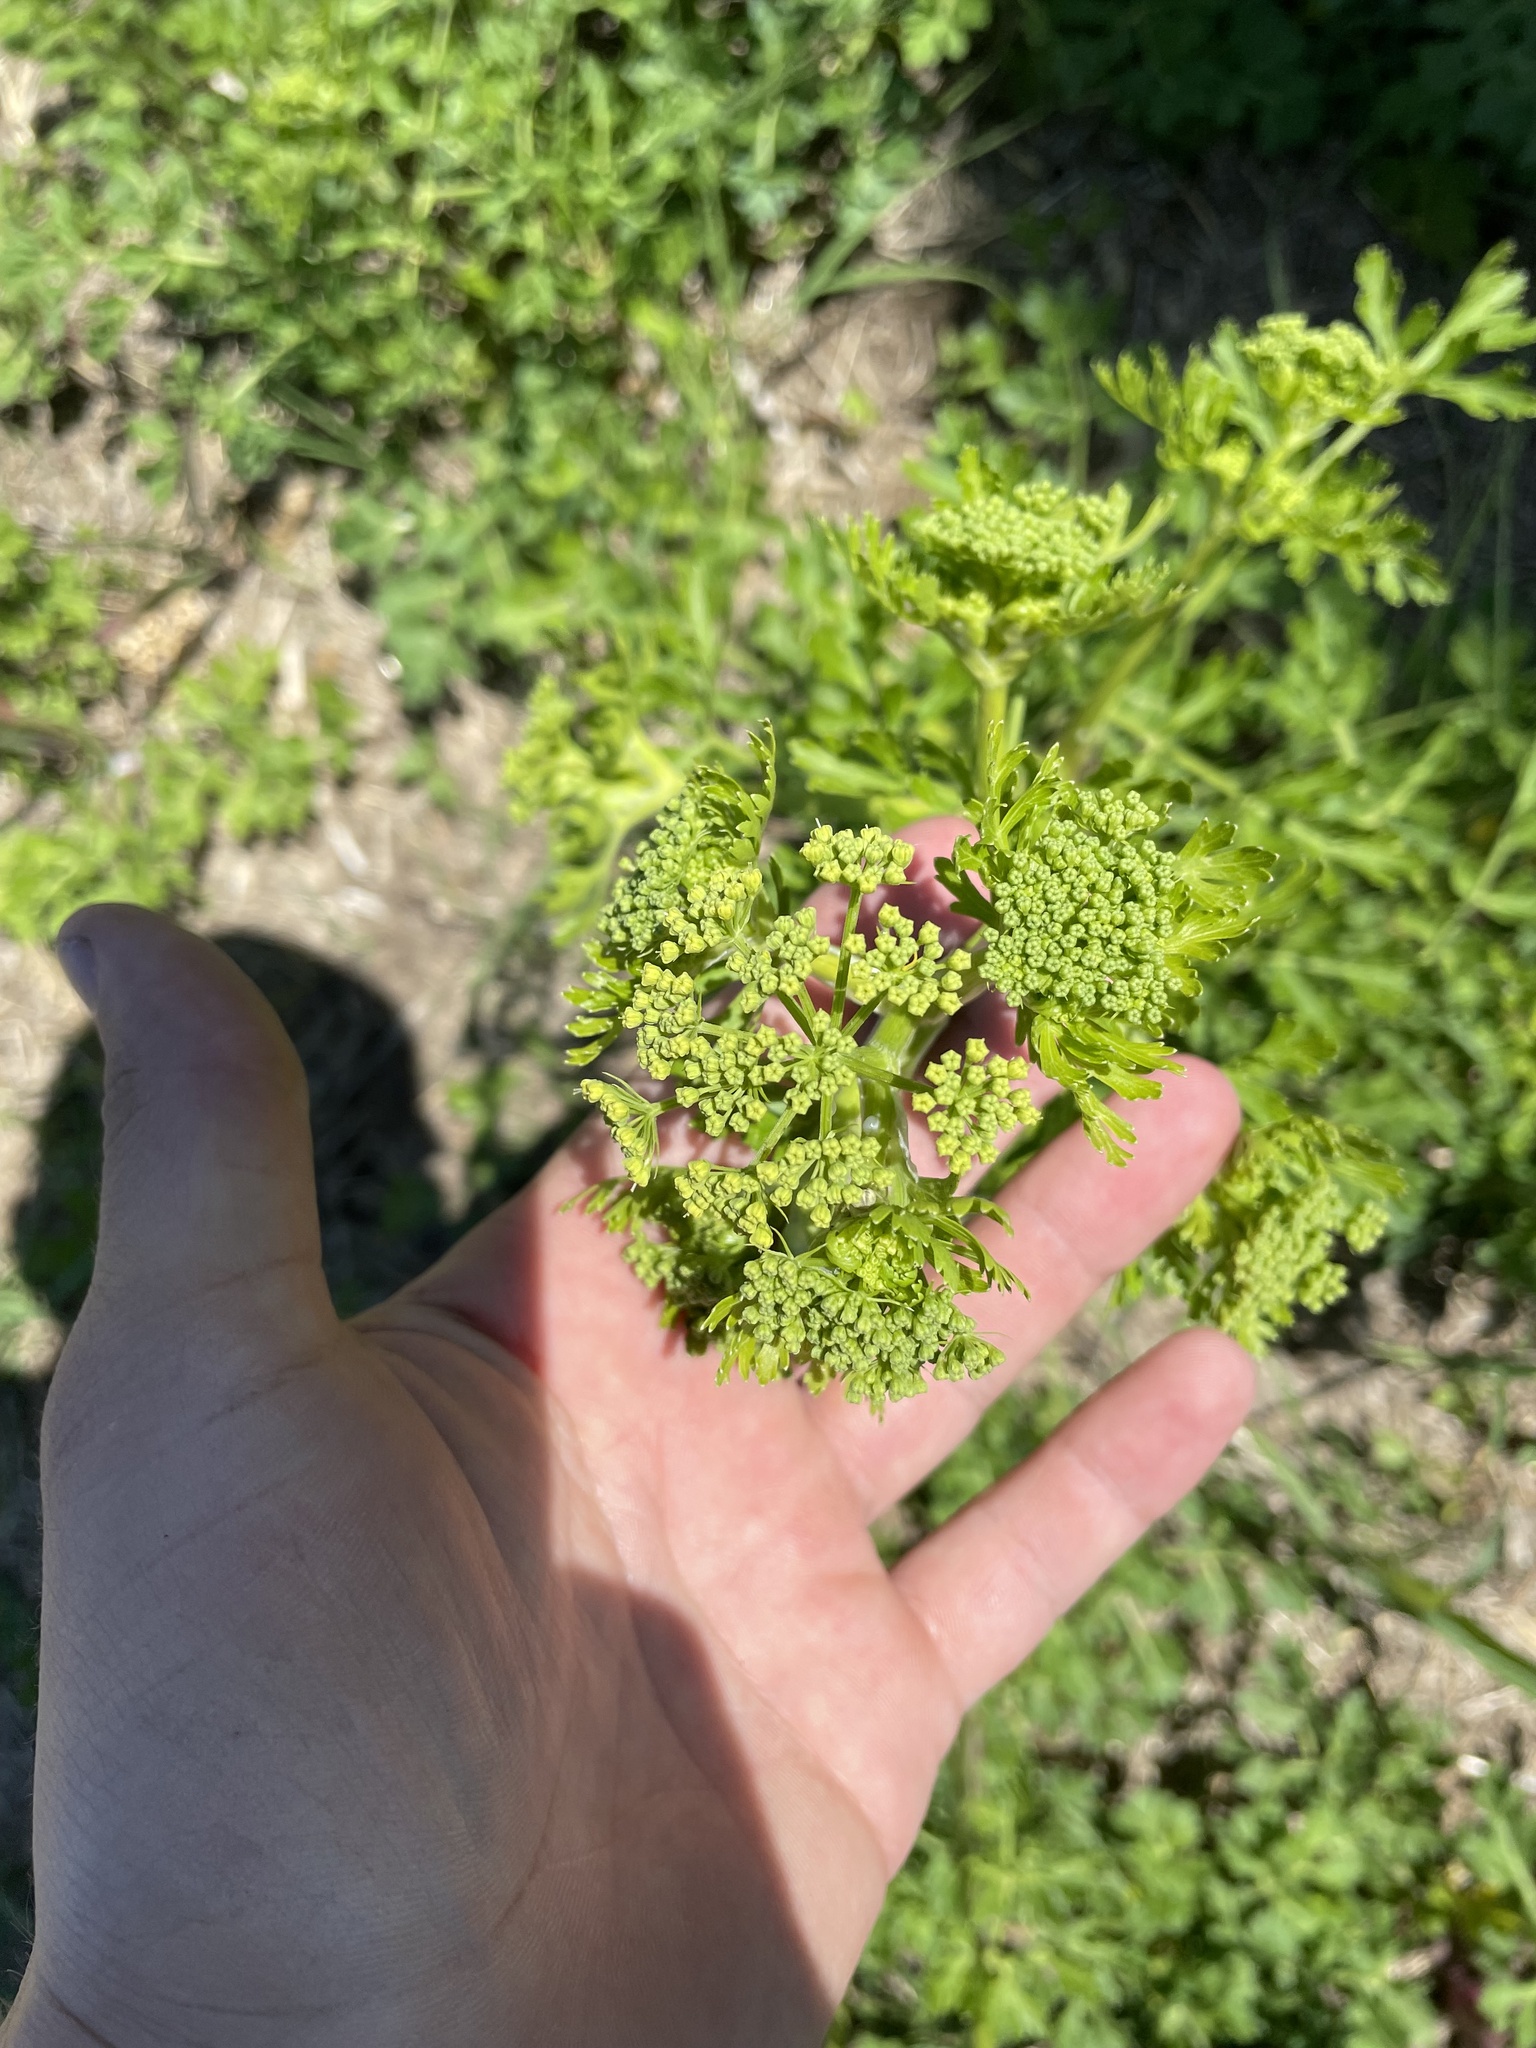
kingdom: Plantae
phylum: Tracheophyta
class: Magnoliopsida
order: Apiales
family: Apiaceae
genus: Polytaenia
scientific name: Polytaenia texana
